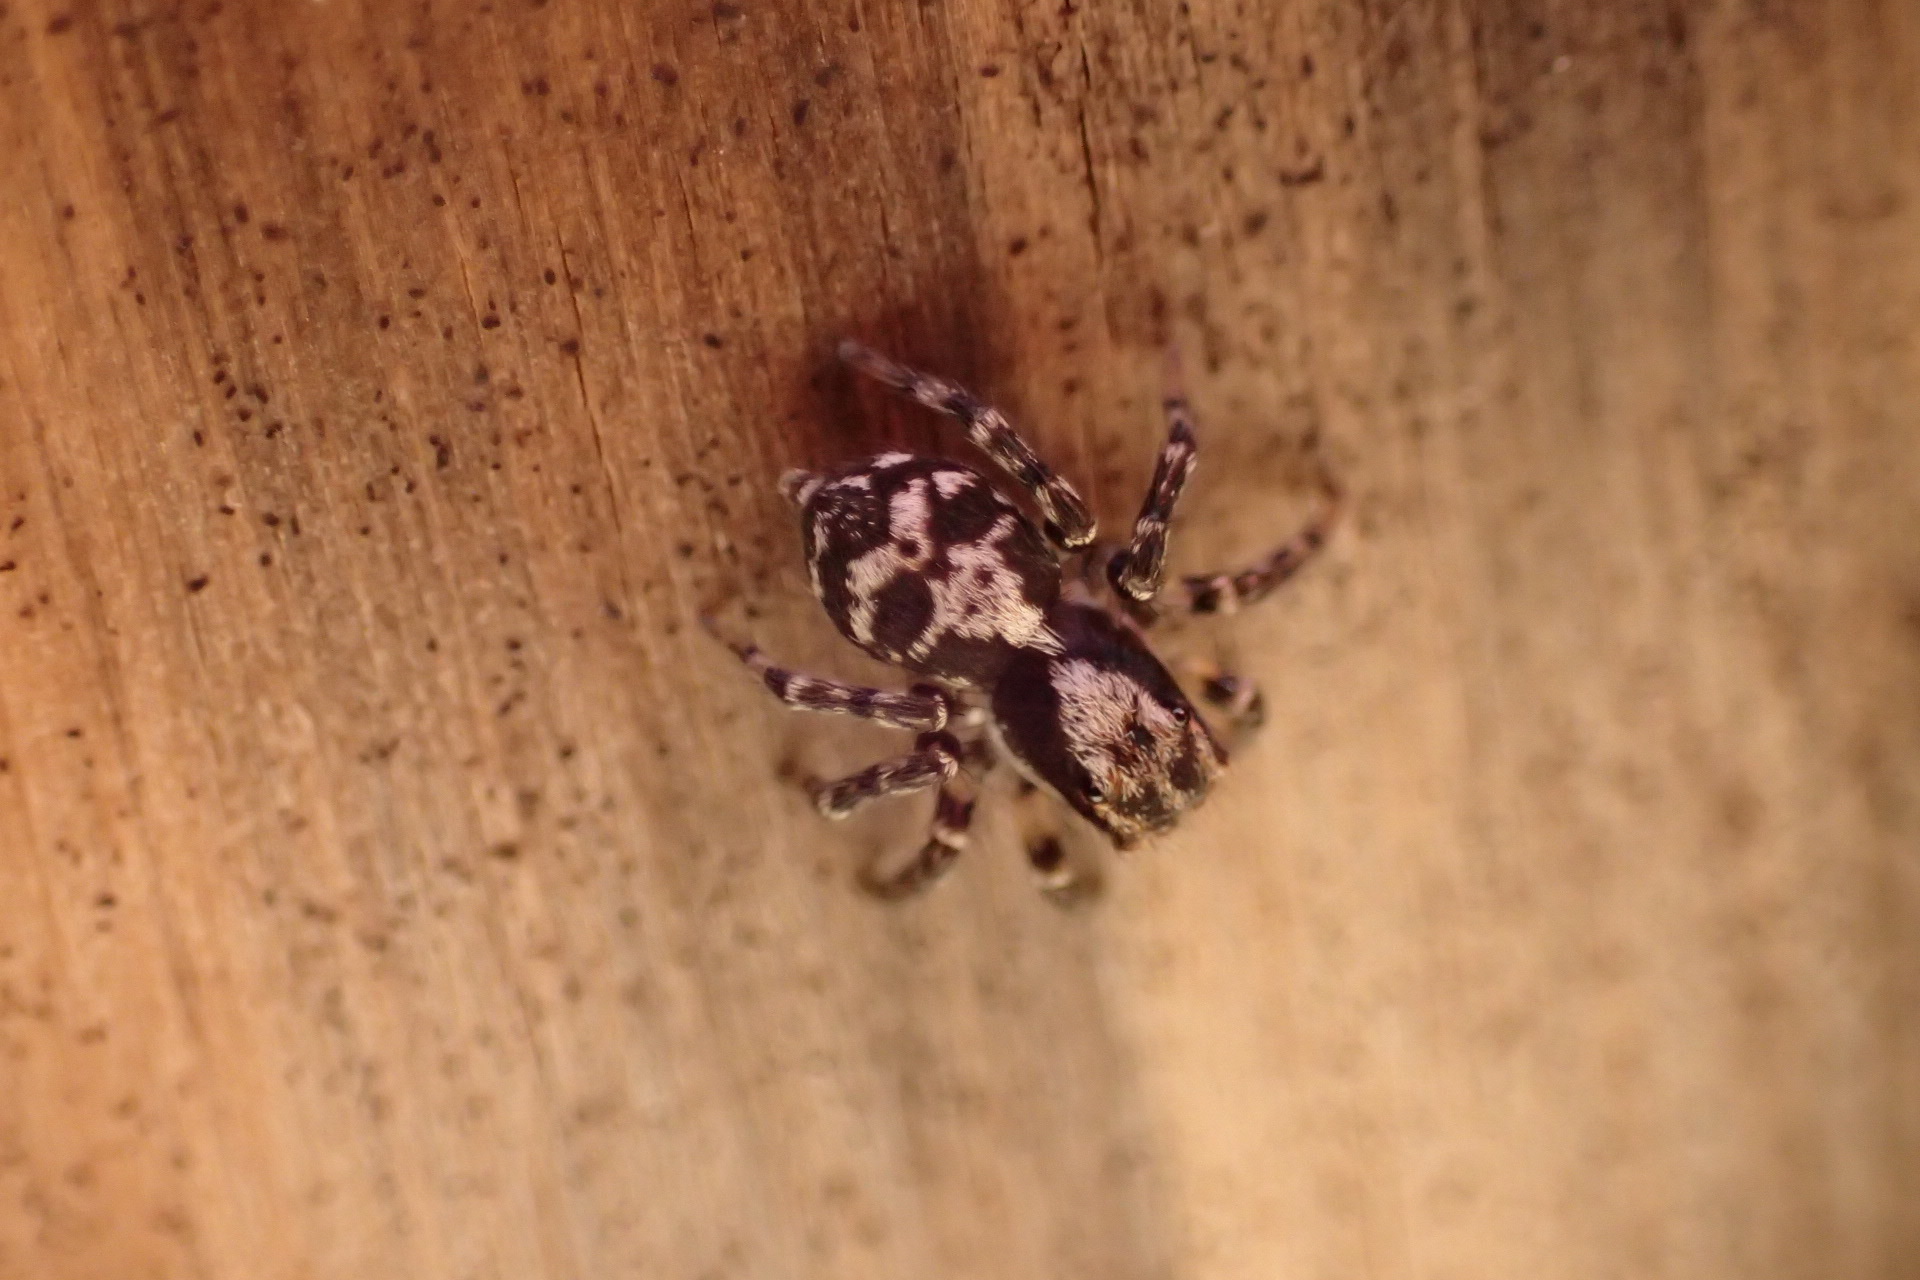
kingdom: Animalia
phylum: Arthropoda
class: Arachnida
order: Araneae
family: Salticidae
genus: Naphrys
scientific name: Naphrys pulex
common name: Flea jumping spider
